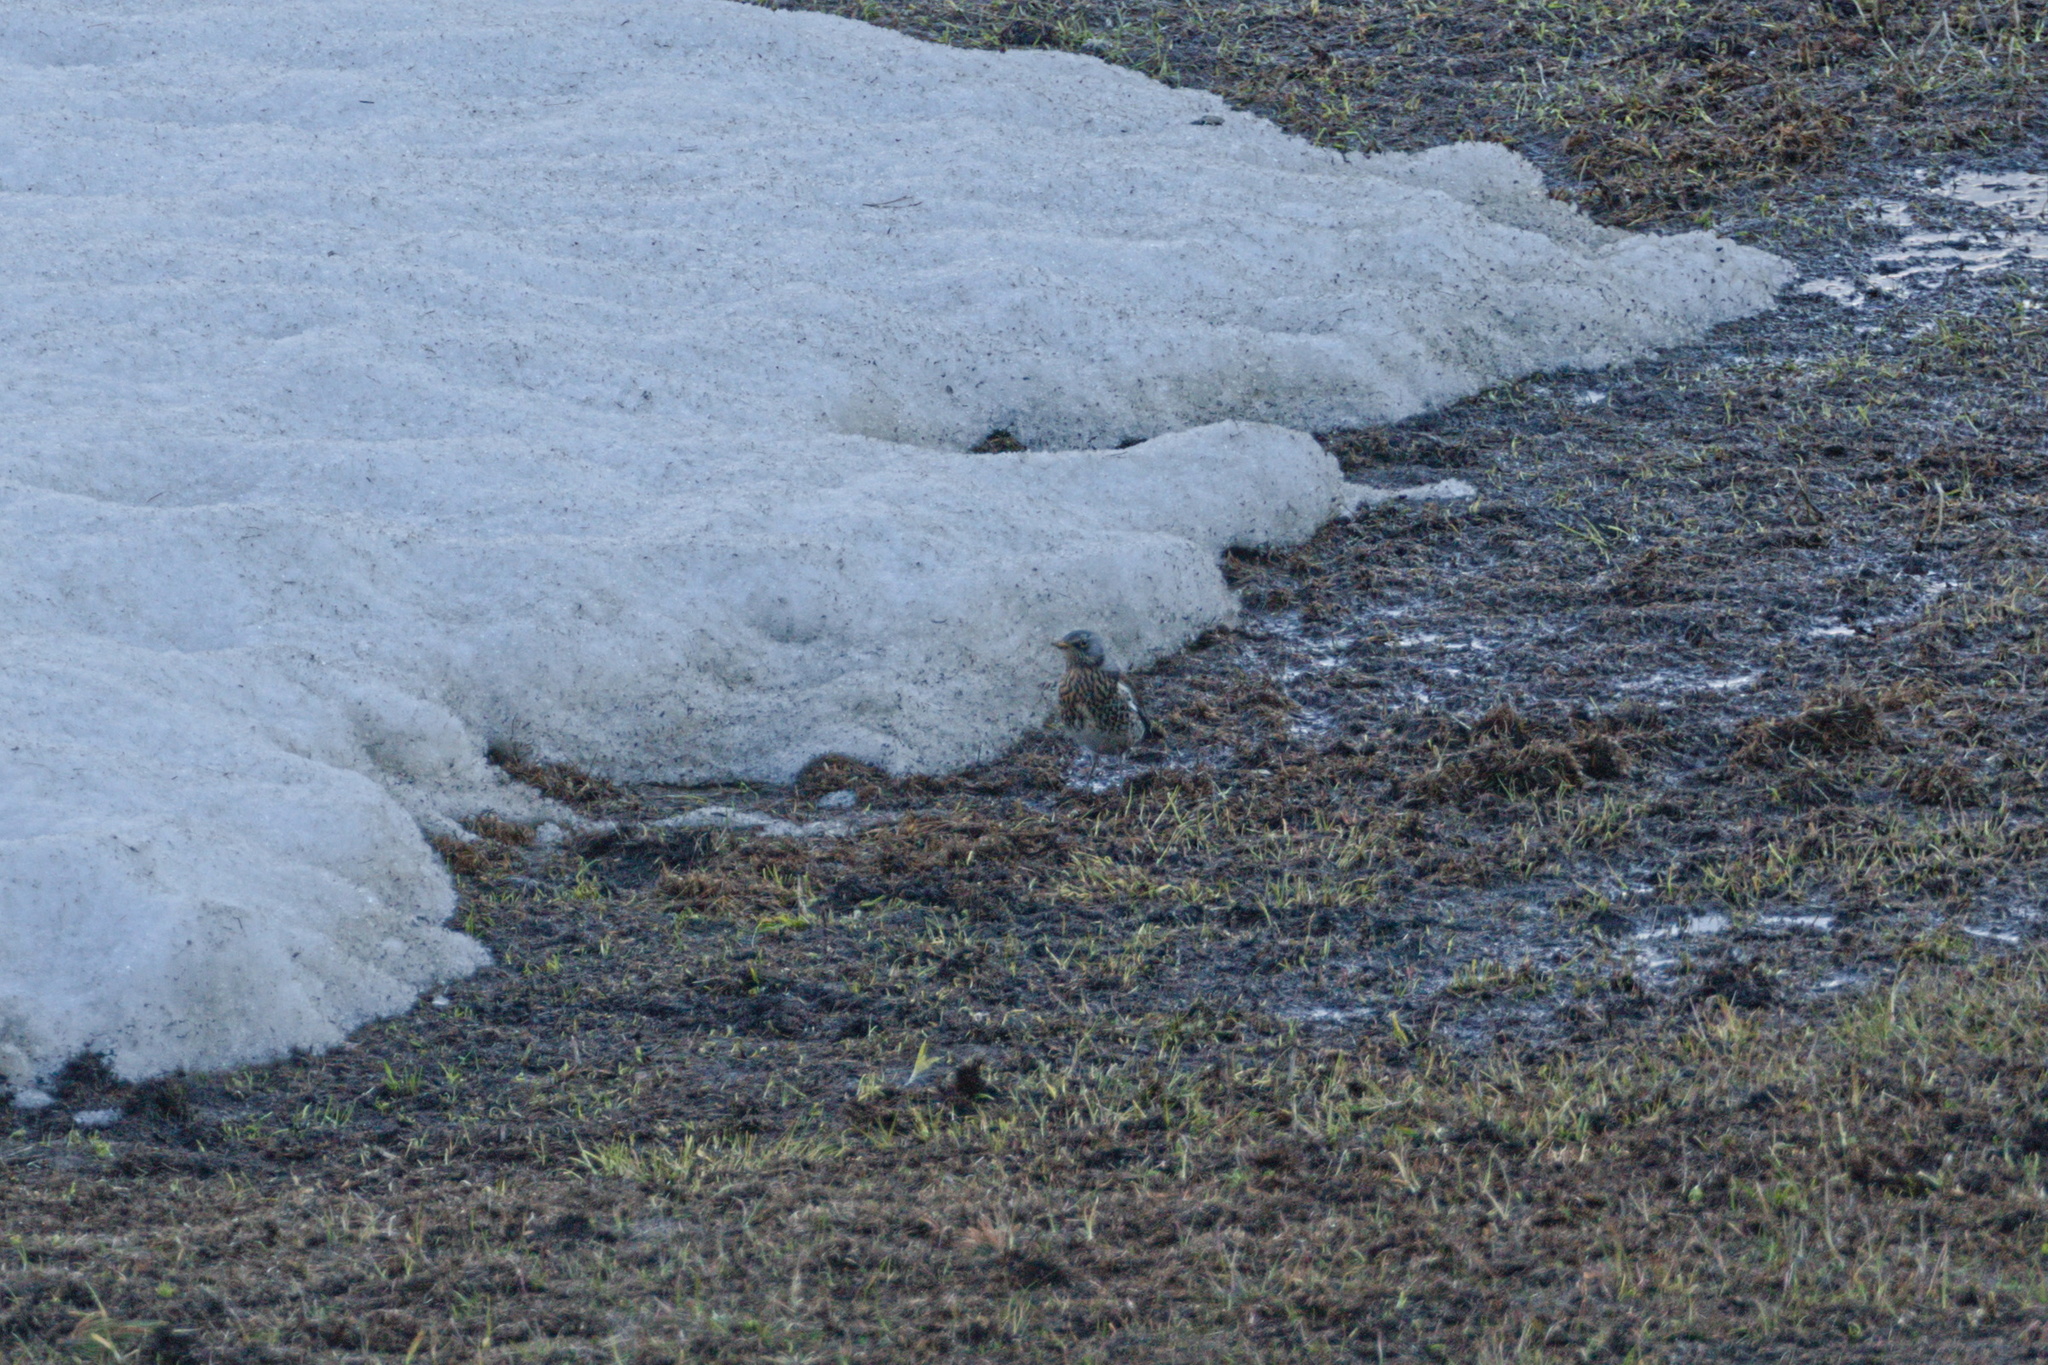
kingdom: Animalia
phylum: Chordata
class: Aves
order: Passeriformes
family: Turdidae
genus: Turdus
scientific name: Turdus pilaris
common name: Fieldfare
